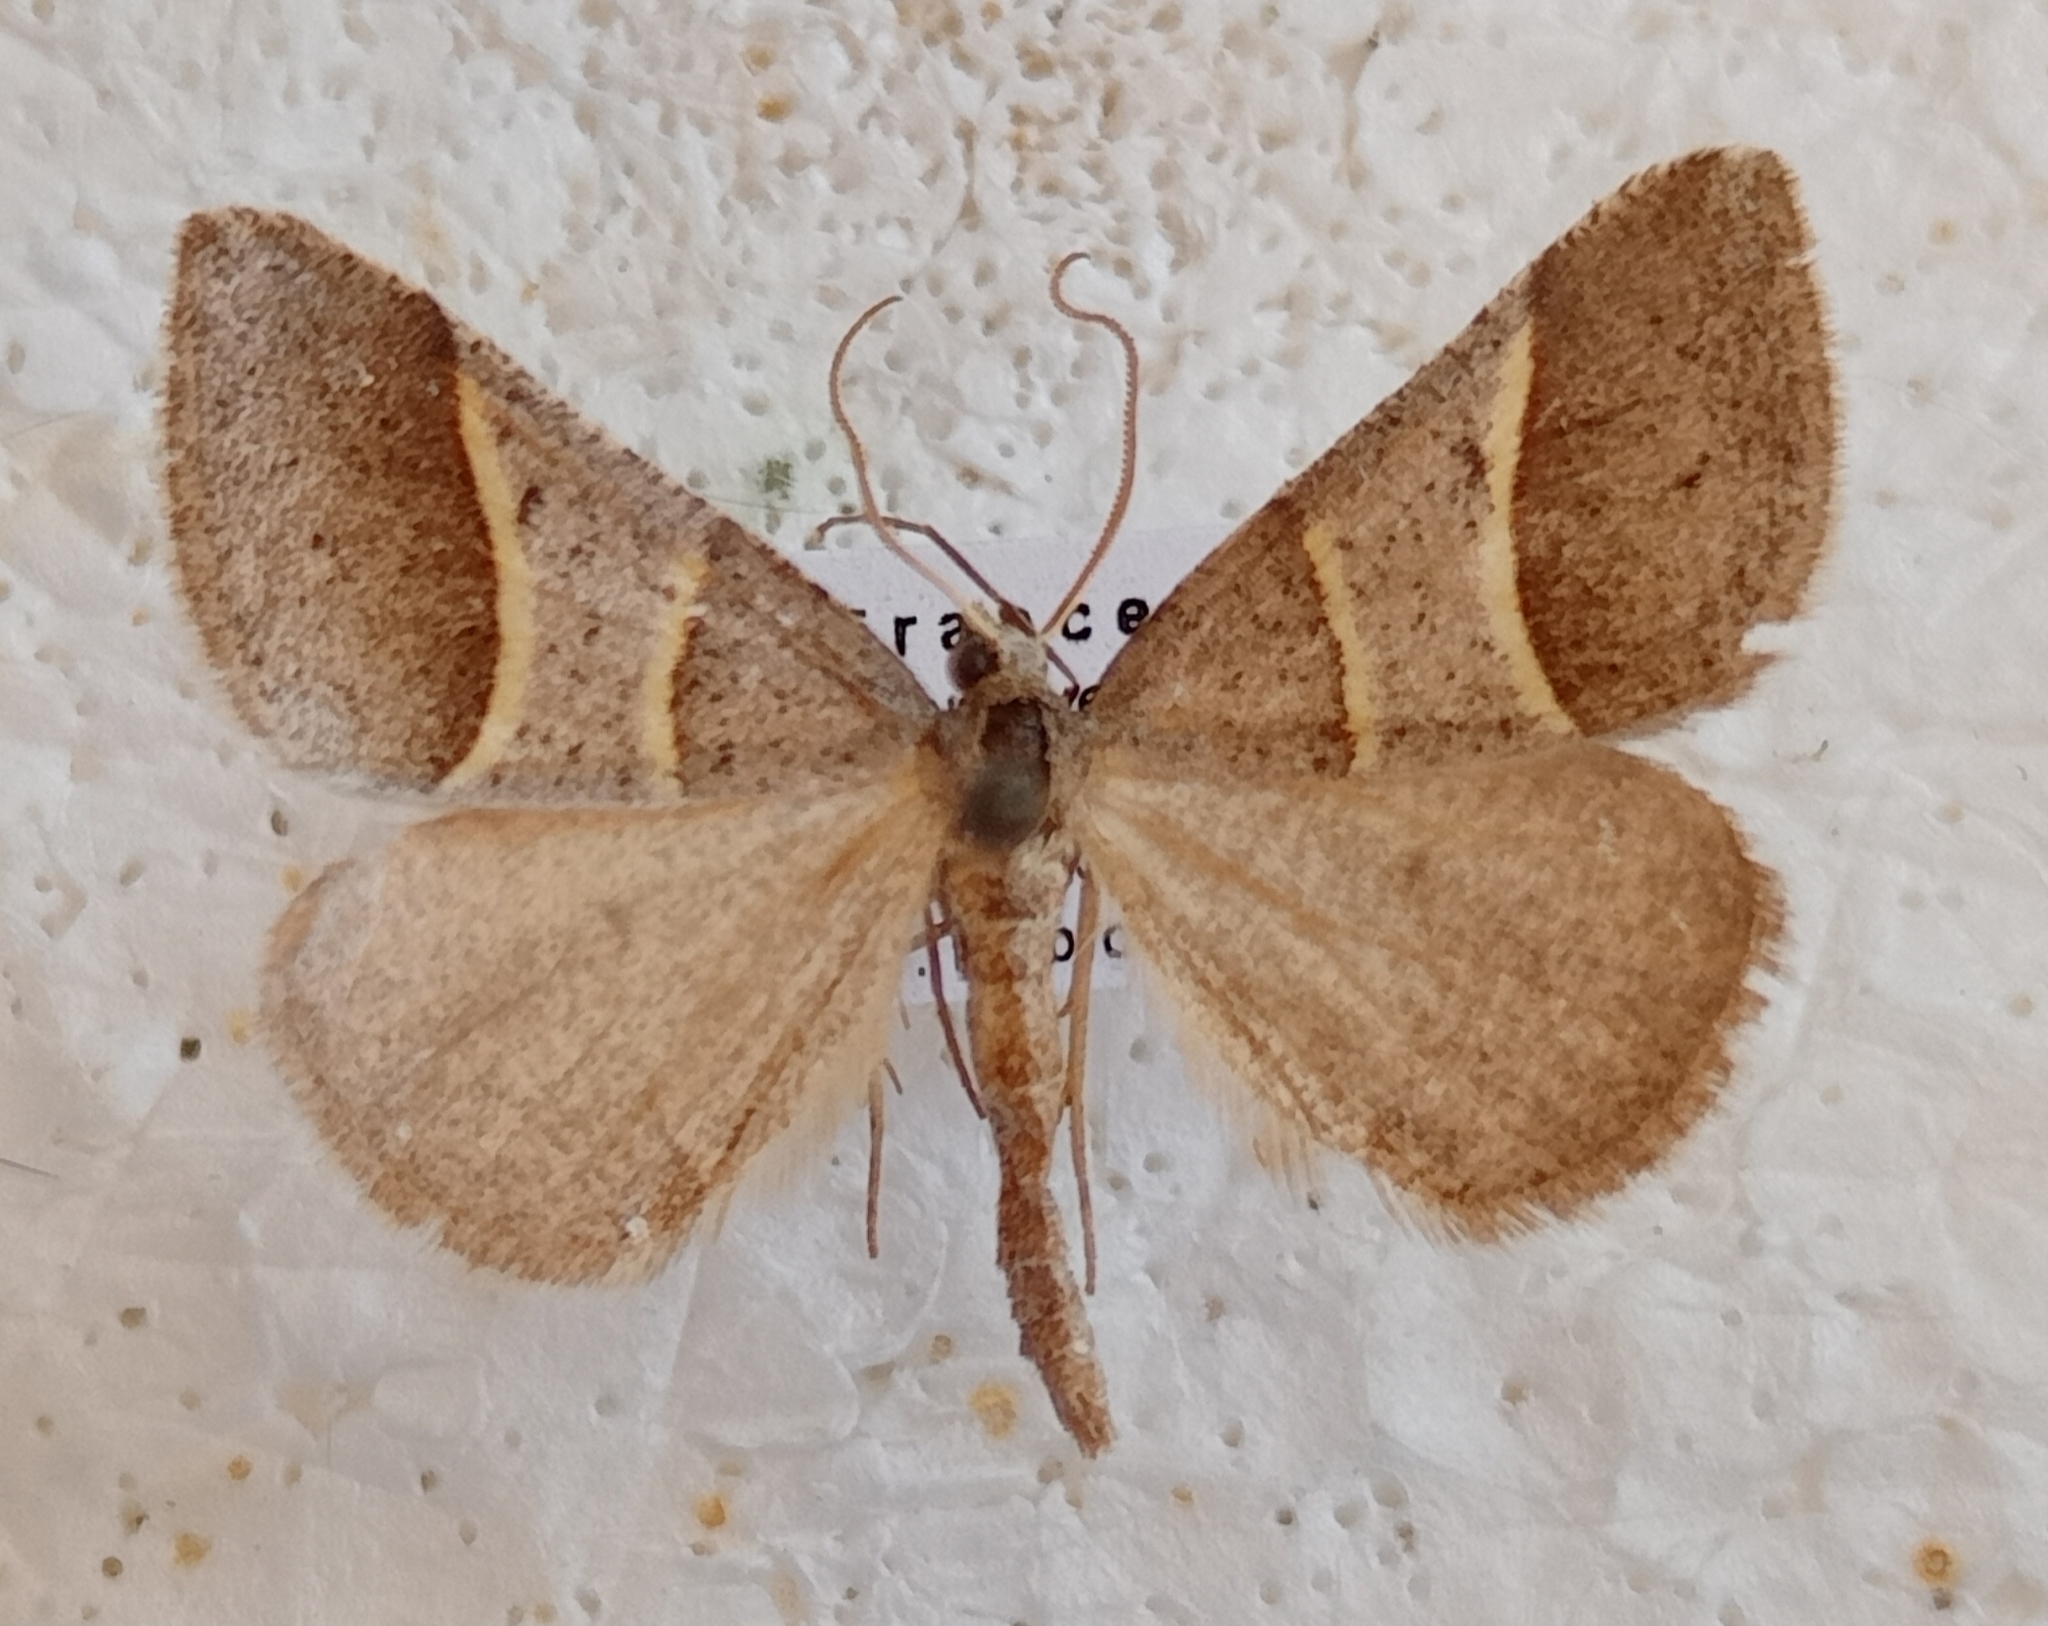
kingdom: Animalia
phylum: Arthropoda
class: Insecta
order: Lepidoptera
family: Pterophoridae
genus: Pterophorus
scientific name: Pterophorus Petrophora convergata
